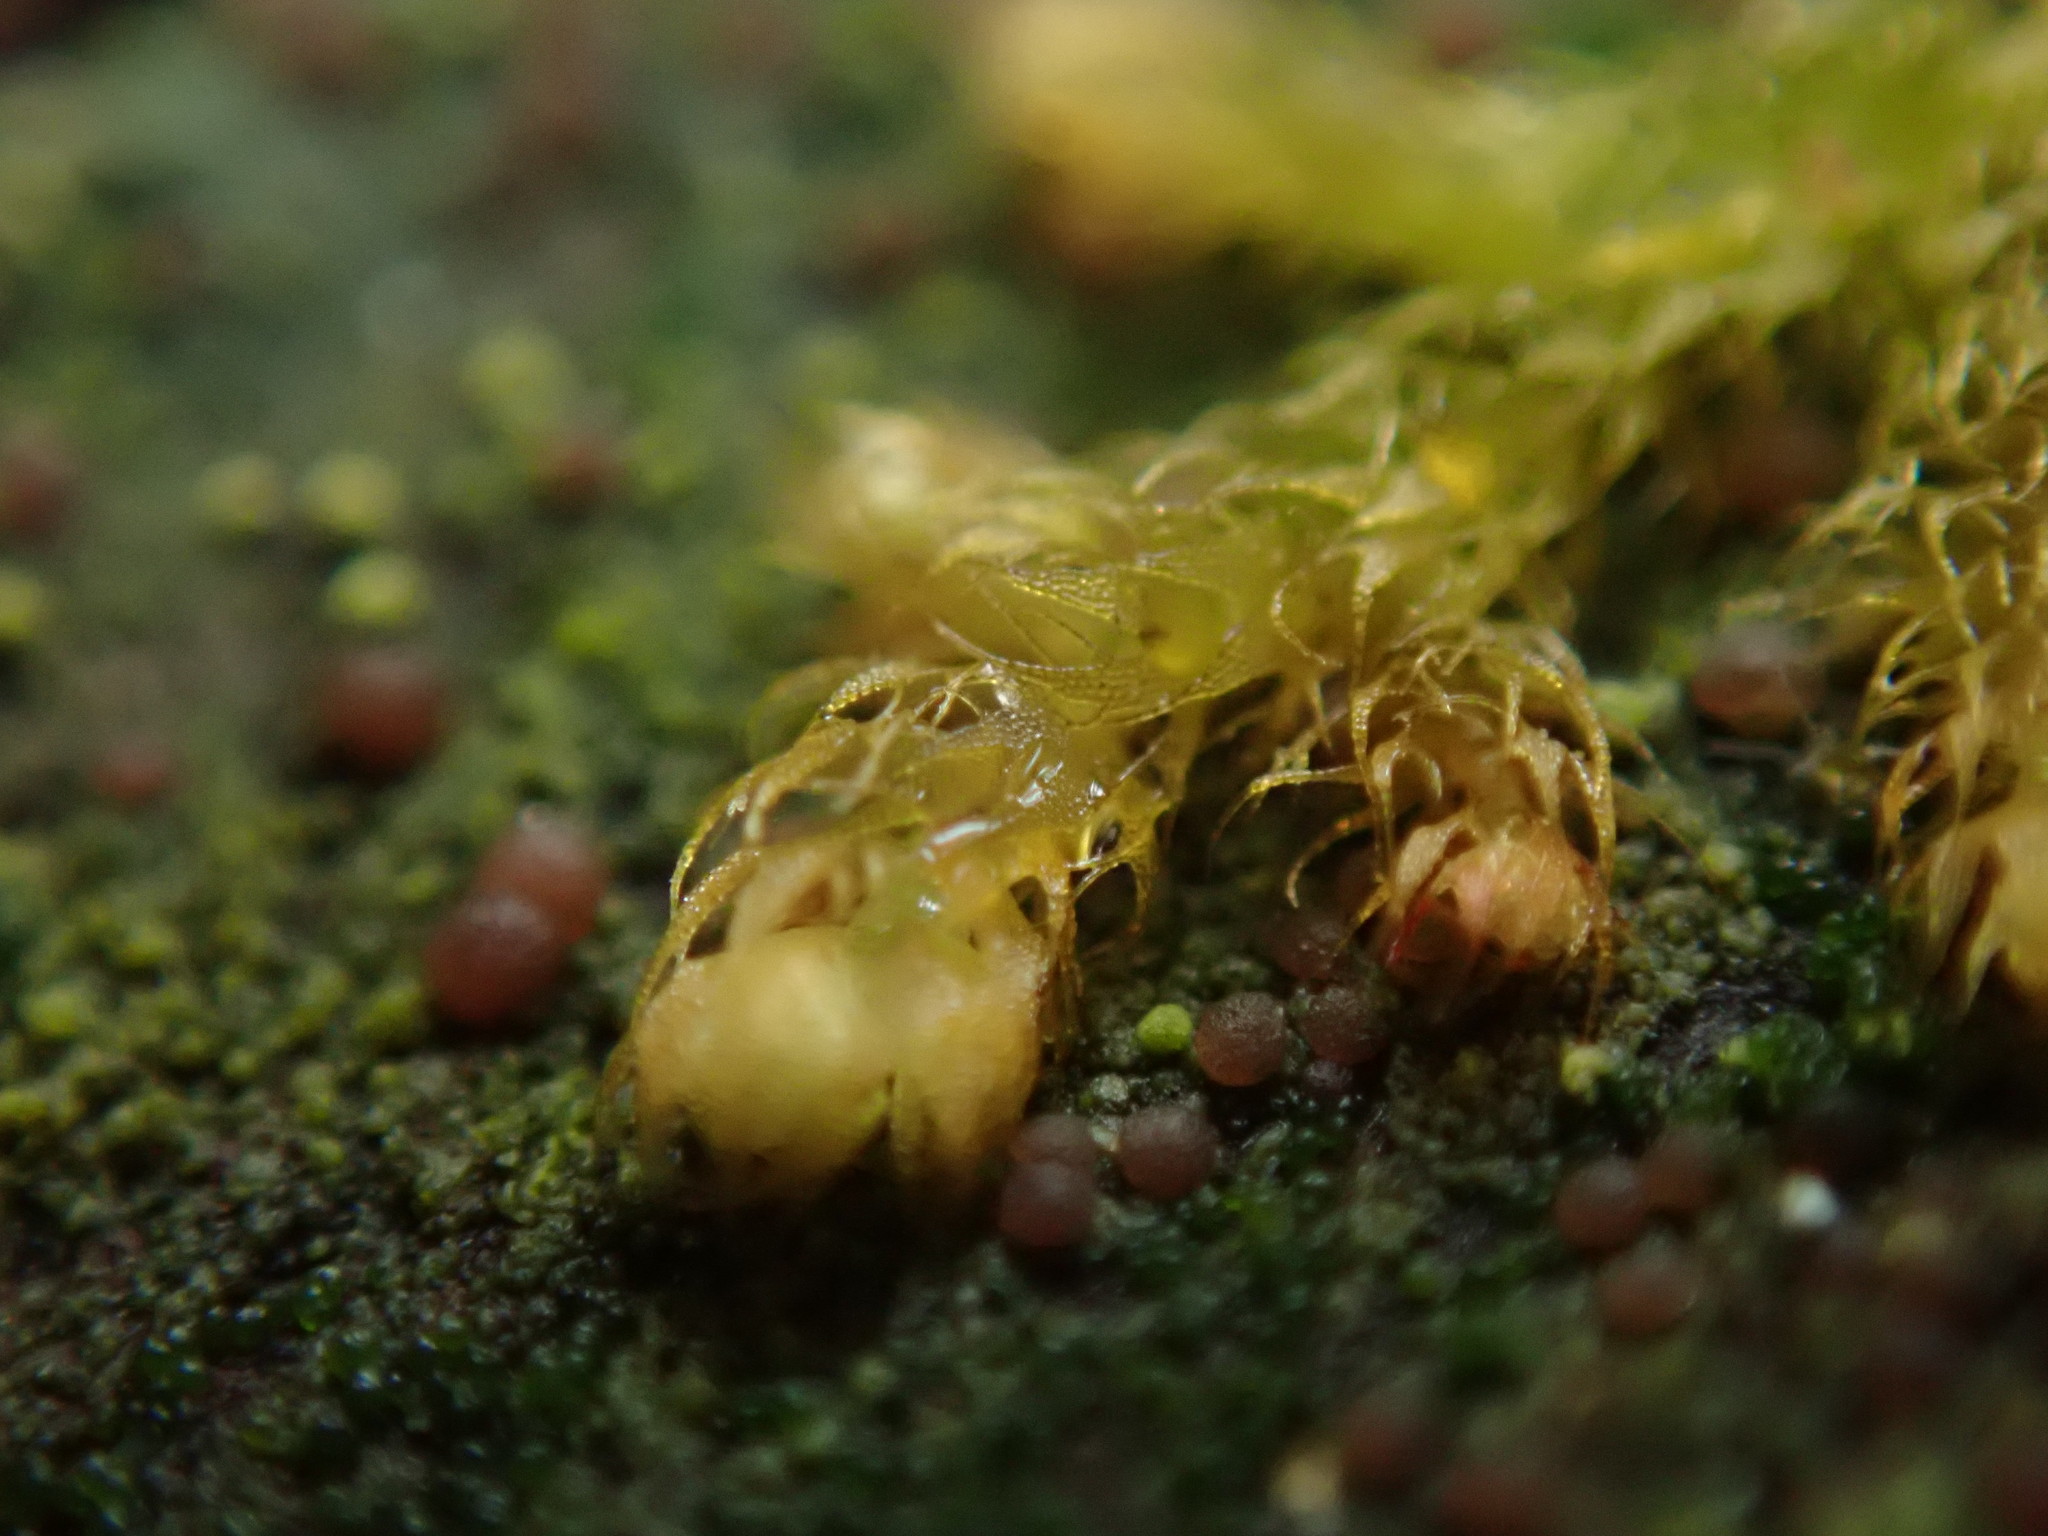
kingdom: Plantae
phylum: Marchantiophyta
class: Jungermanniopsida
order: Ptilidiales
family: Ptilidiaceae
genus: Ptilidium
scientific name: Ptilidium californicum
